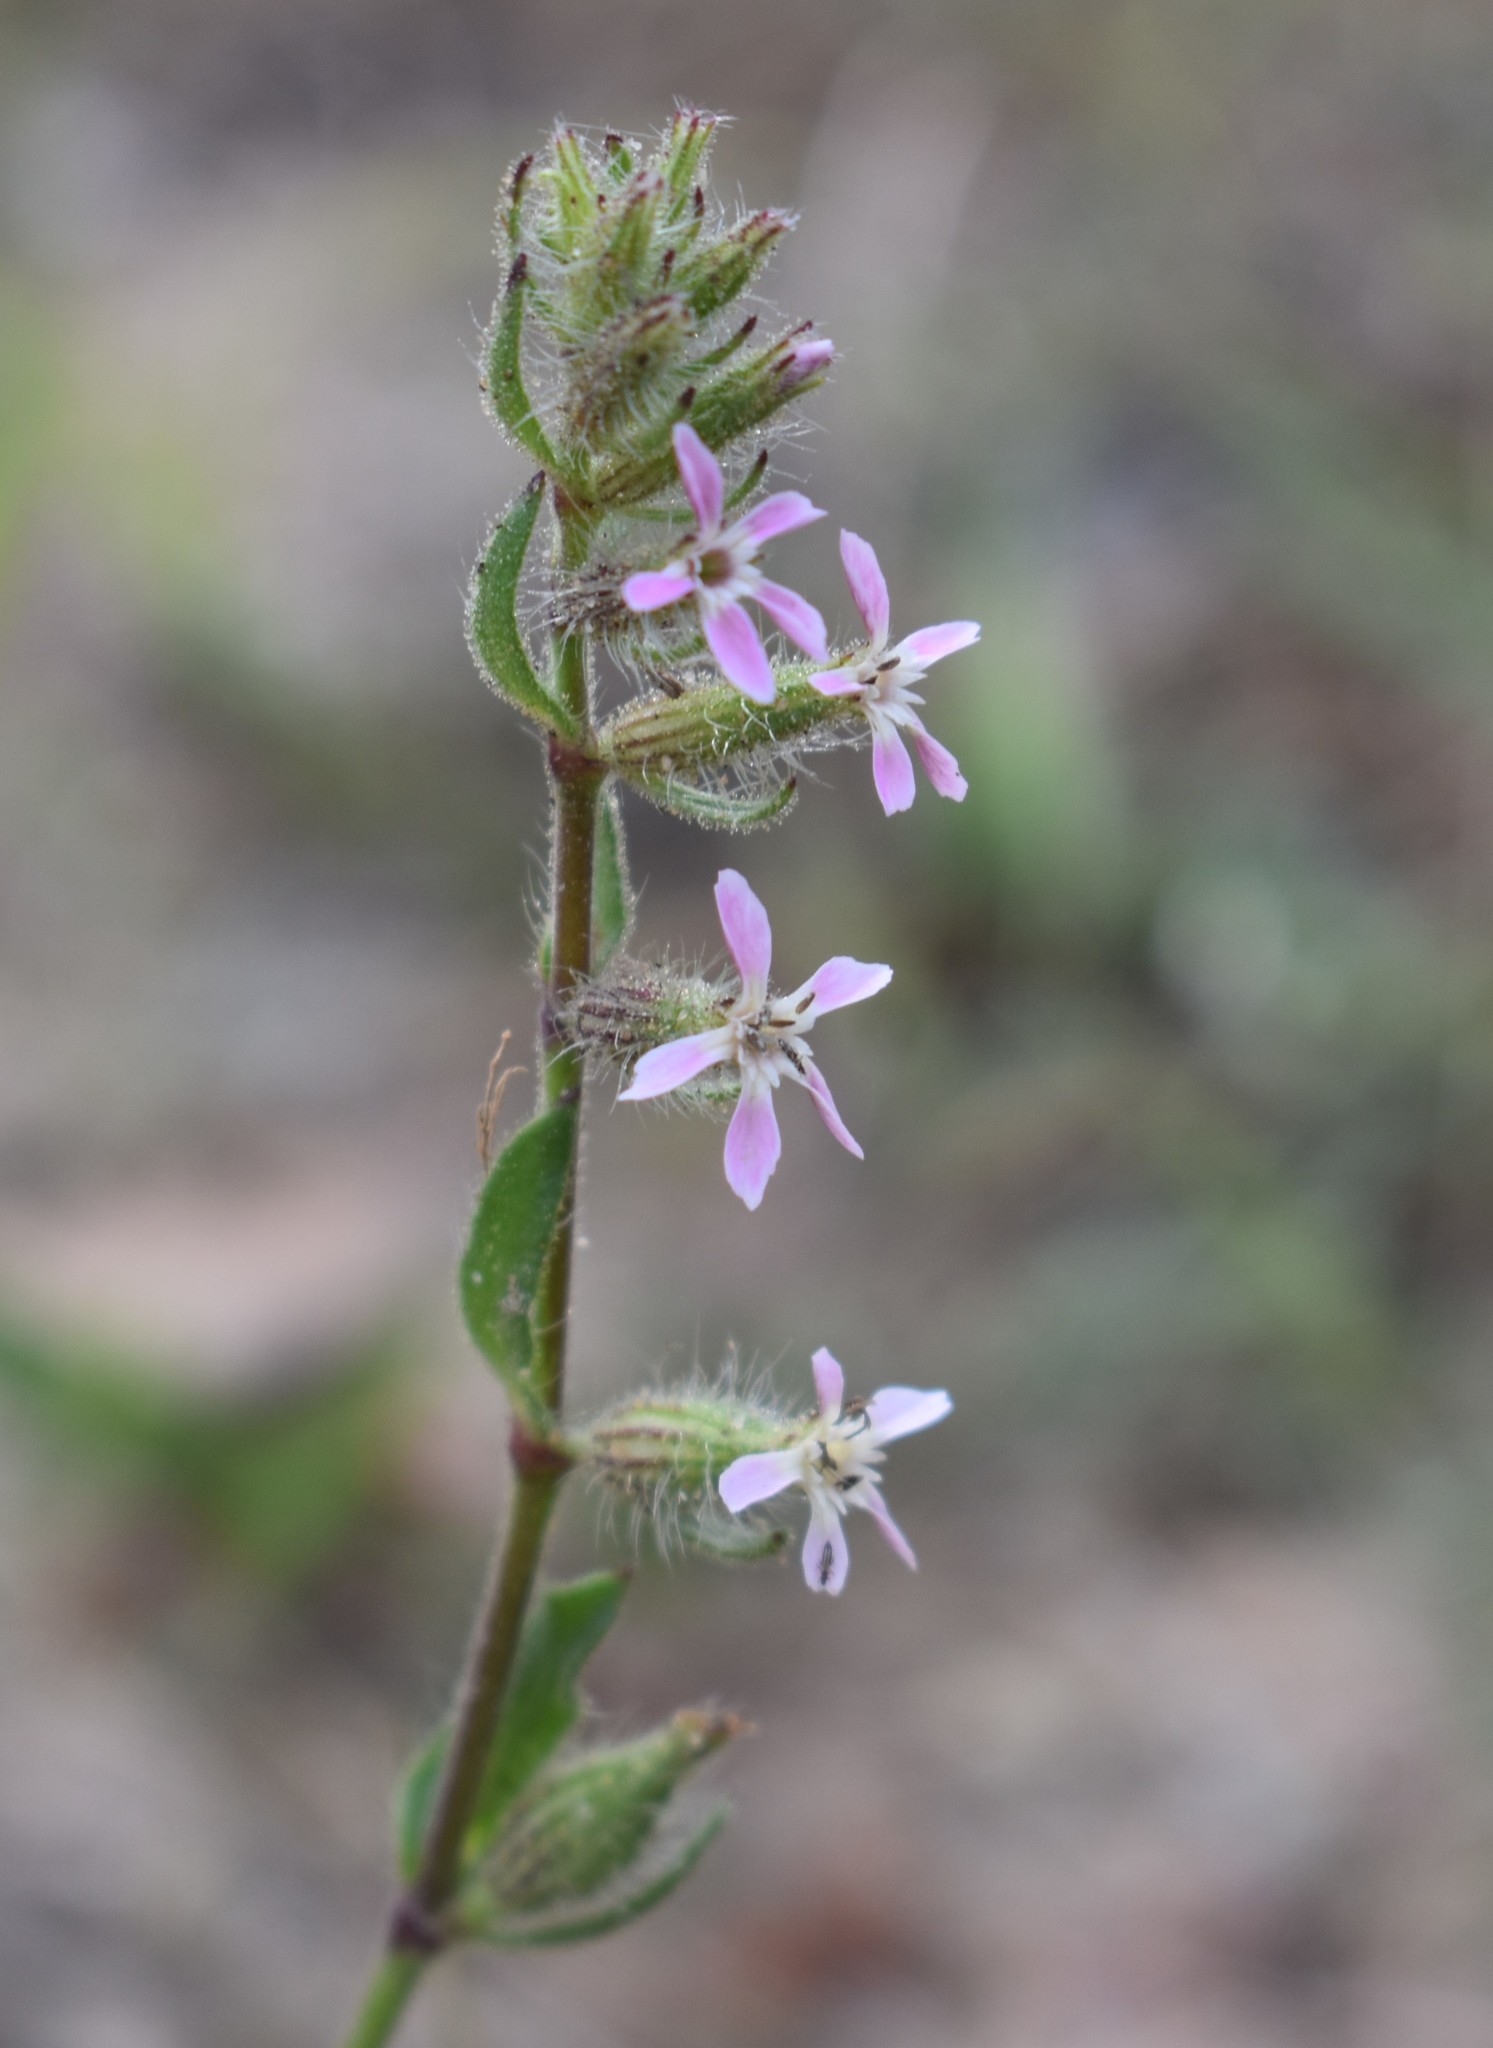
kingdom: Plantae
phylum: Tracheophyta
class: Magnoliopsida
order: Caryophyllales
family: Caryophyllaceae
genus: Silene
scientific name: Silene gallica
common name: Small-flowered catchfly
